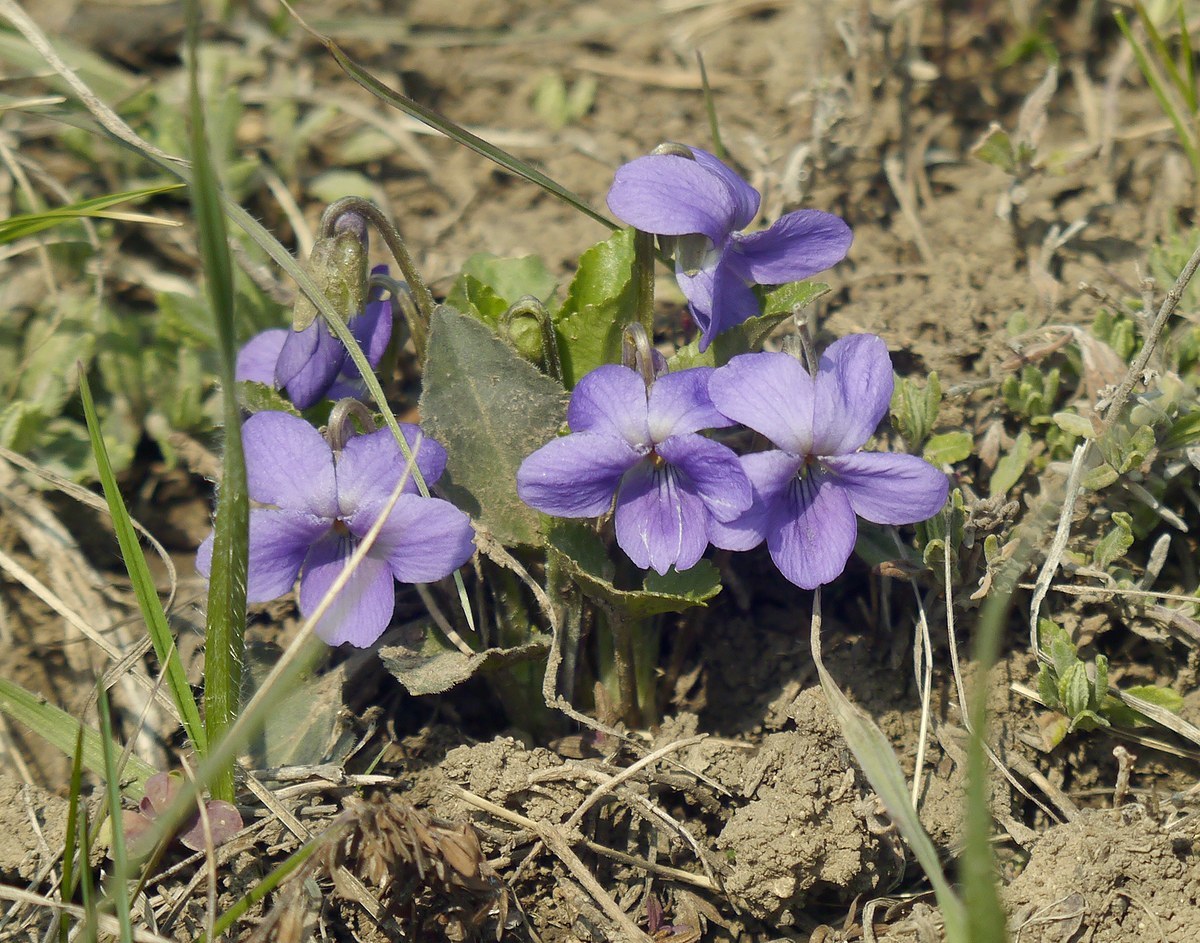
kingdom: Plantae
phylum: Tracheophyta
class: Magnoliopsida
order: Malpighiales
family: Violaceae
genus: Viola
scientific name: Viola ambigua
